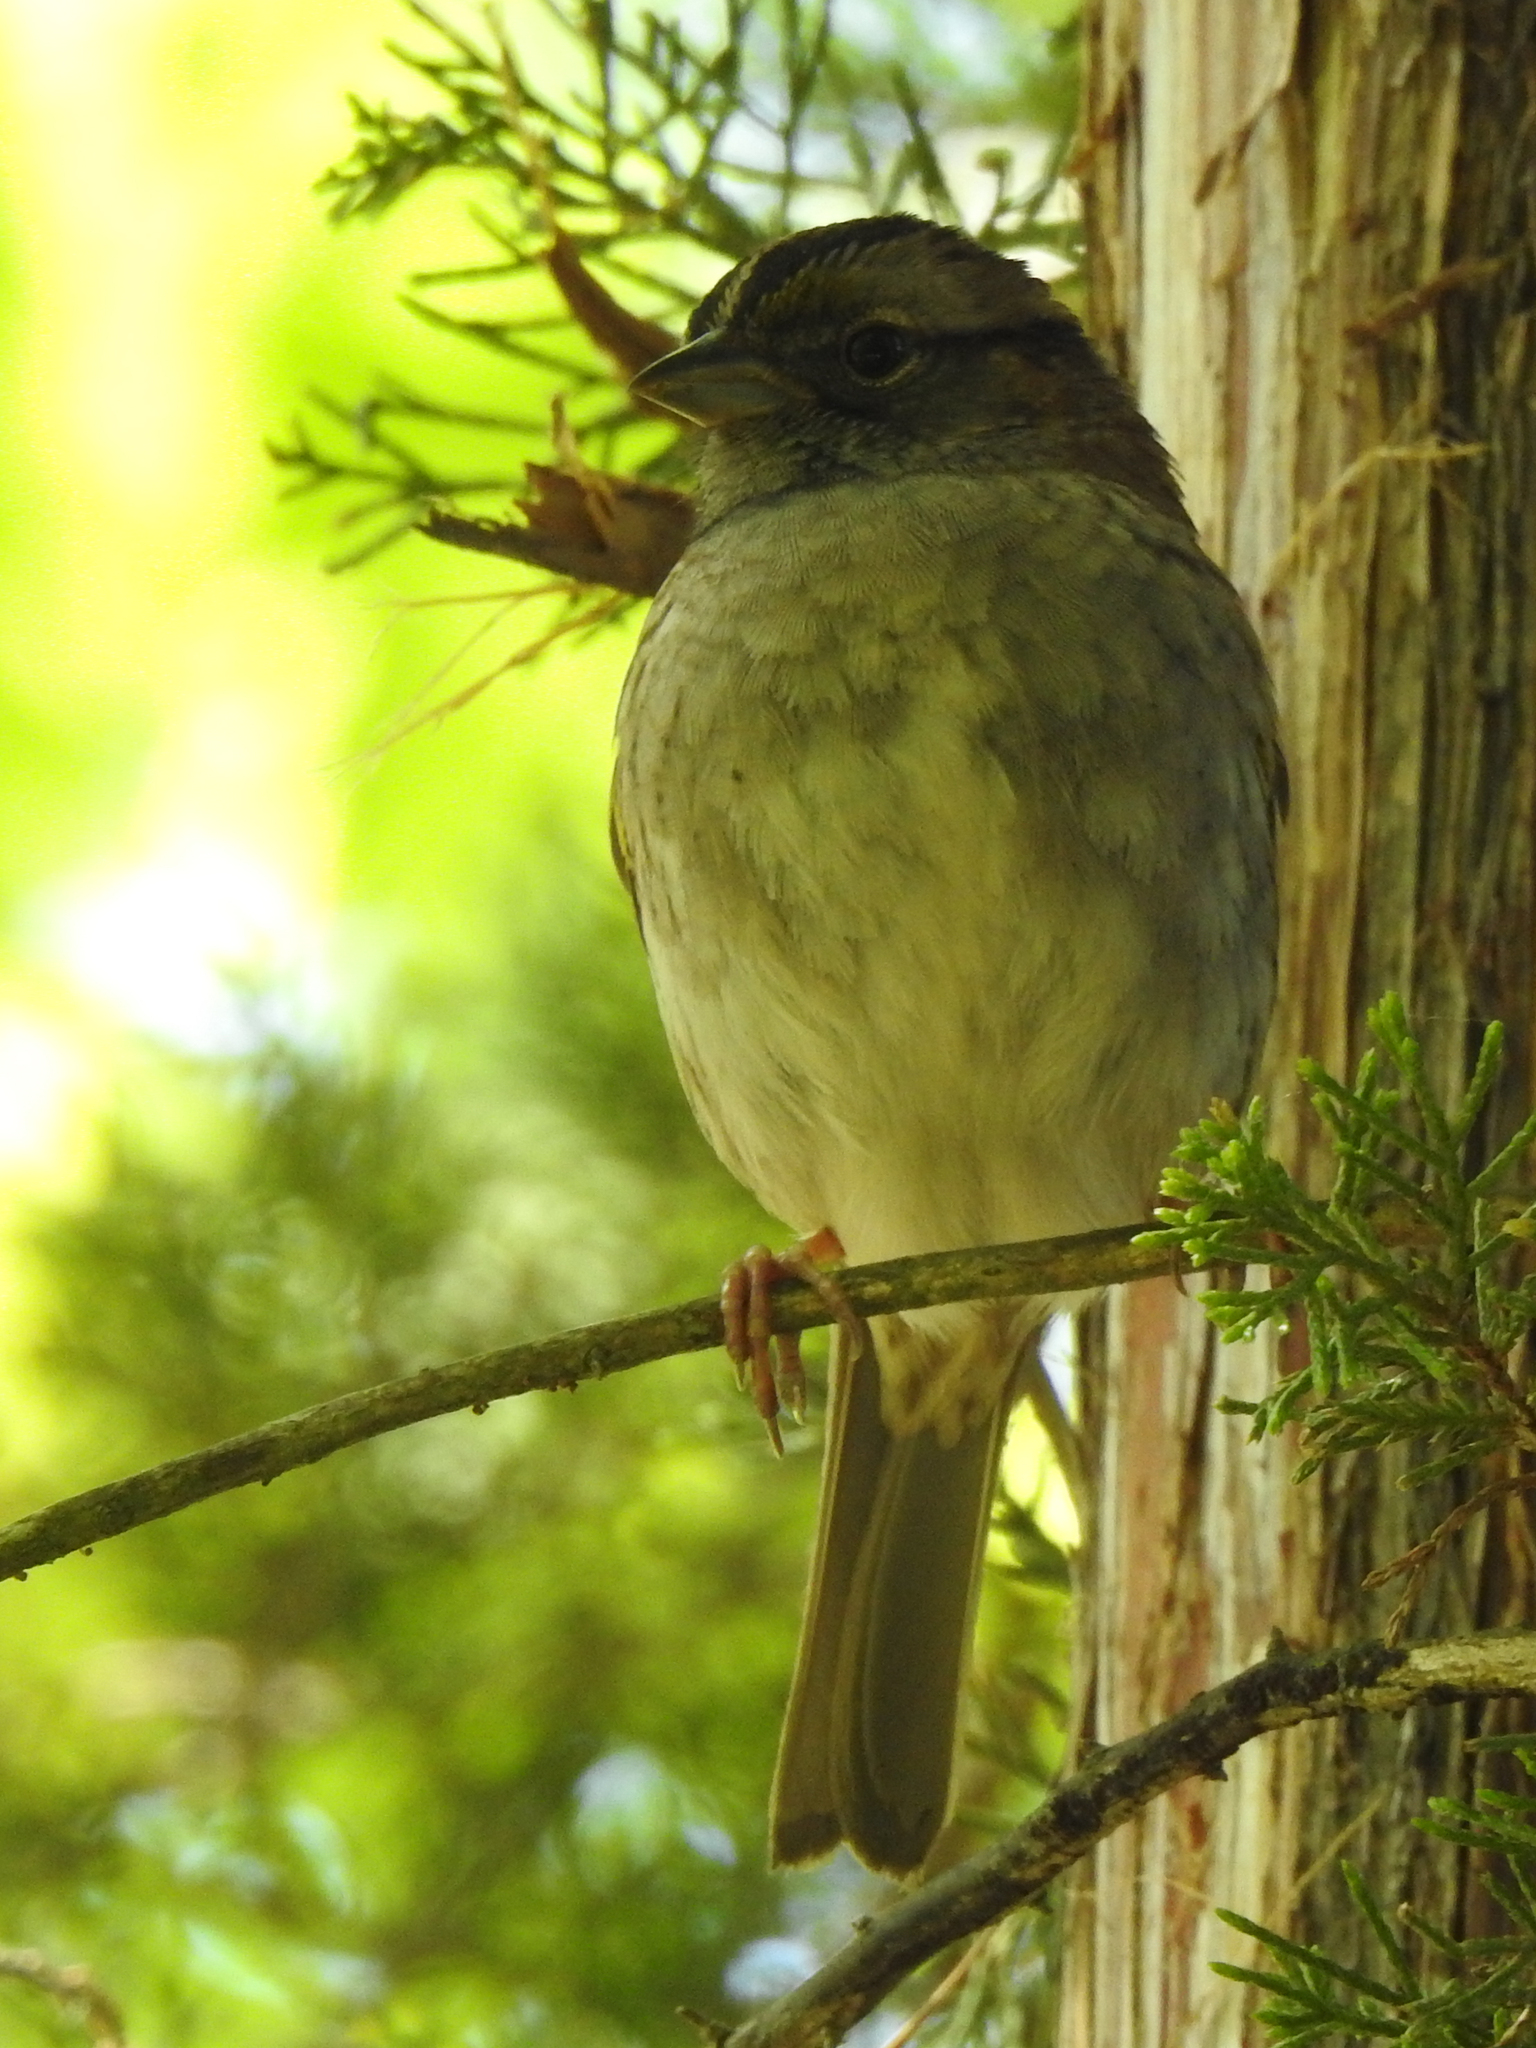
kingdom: Animalia
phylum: Chordata
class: Aves
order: Passeriformes
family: Passerellidae
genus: Zonotrichia
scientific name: Zonotrichia albicollis
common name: White-throated sparrow
